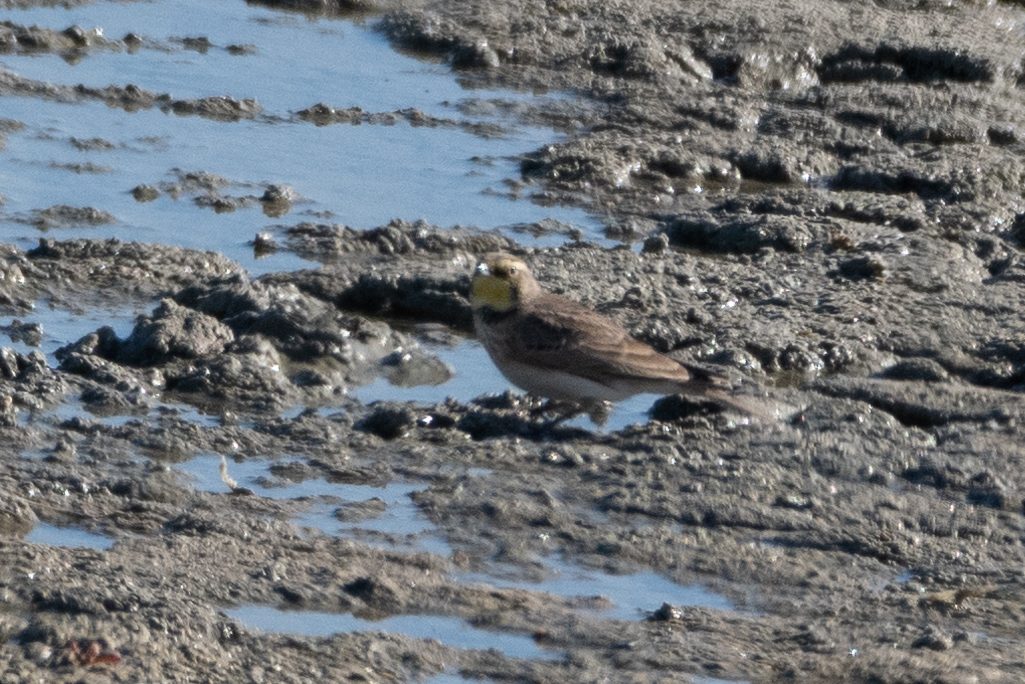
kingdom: Animalia
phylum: Chordata
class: Aves
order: Passeriformes
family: Alaudidae
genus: Eremophila
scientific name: Eremophila alpestris
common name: Horned lark
